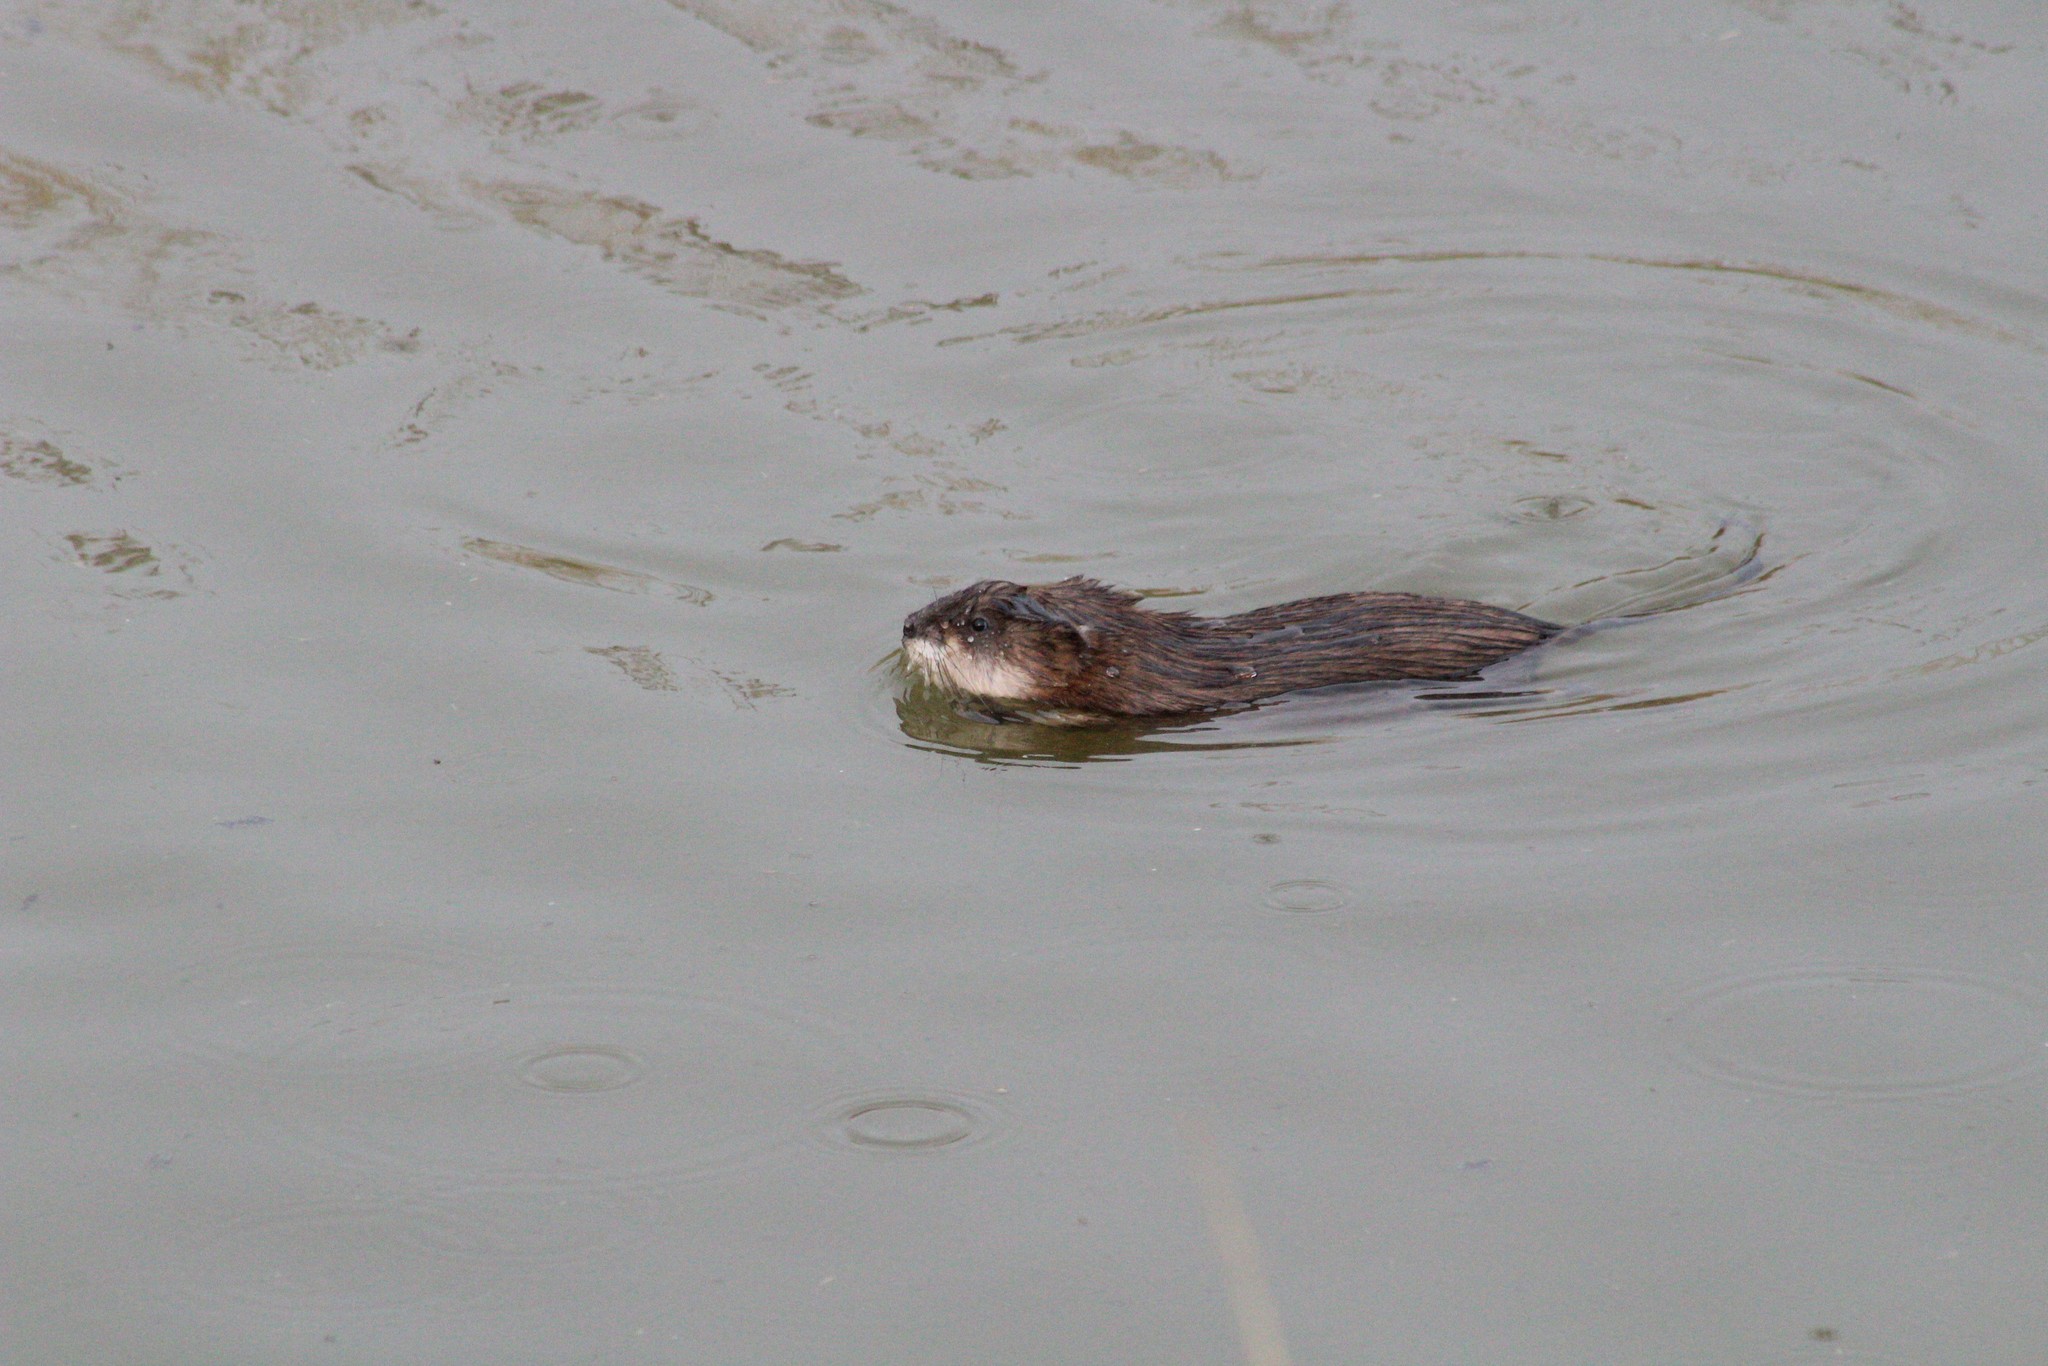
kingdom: Animalia
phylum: Chordata
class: Mammalia
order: Rodentia
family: Cricetidae
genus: Ondatra
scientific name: Ondatra zibethicus
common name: Muskrat
